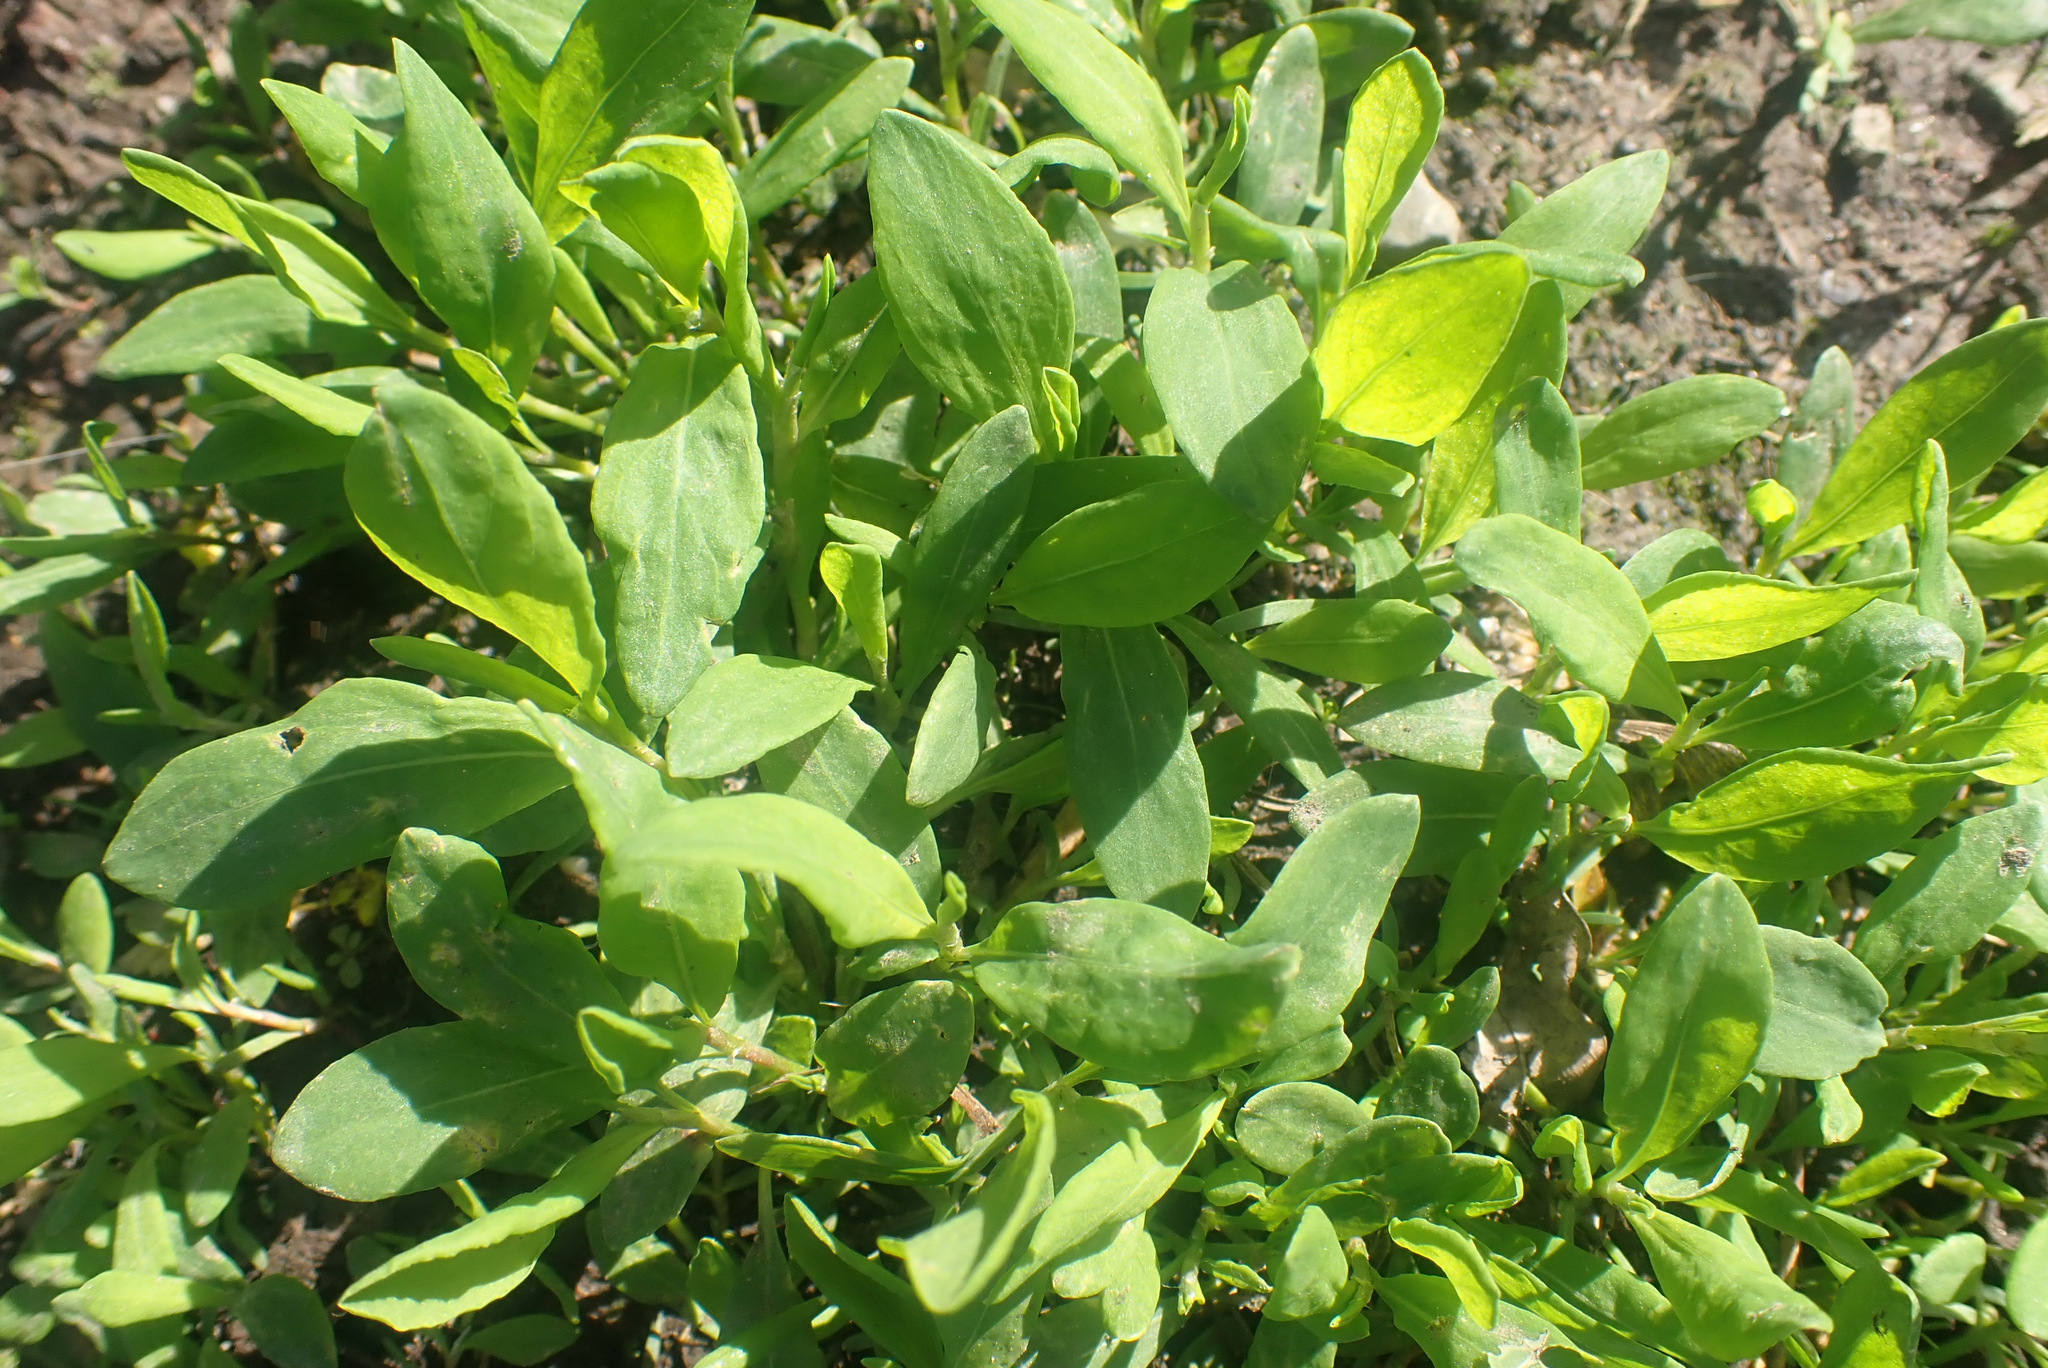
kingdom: Plantae
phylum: Tracheophyta
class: Magnoliopsida
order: Caryophyllales
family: Polygonaceae
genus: Polygonum
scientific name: Polygonum aviculare
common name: Prostrate knotweed
